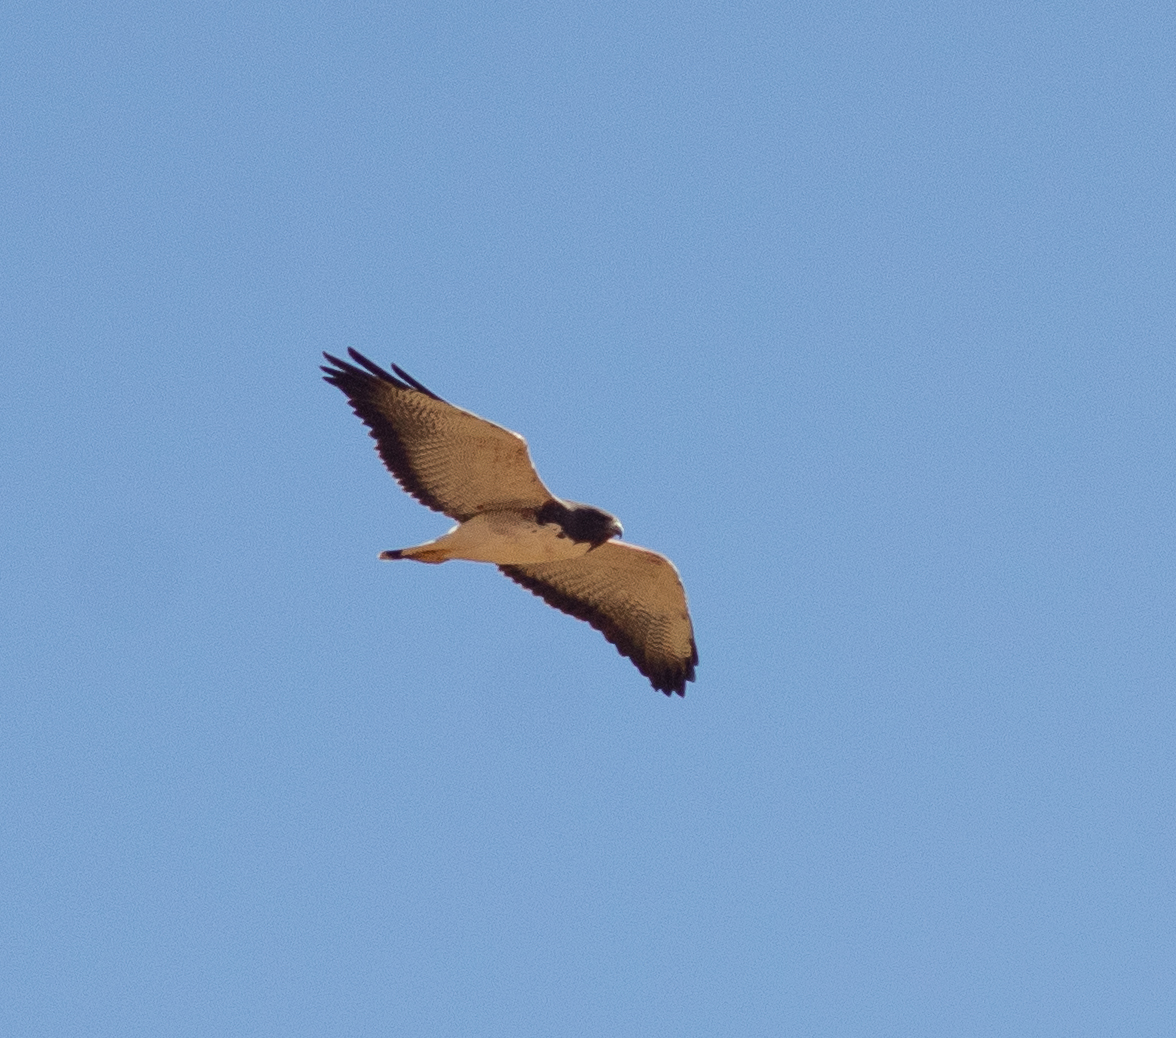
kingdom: Animalia
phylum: Chordata
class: Aves
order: Accipitriformes
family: Accipitridae
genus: Buteo
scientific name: Buteo albicaudatus
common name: White-tailed hawk
